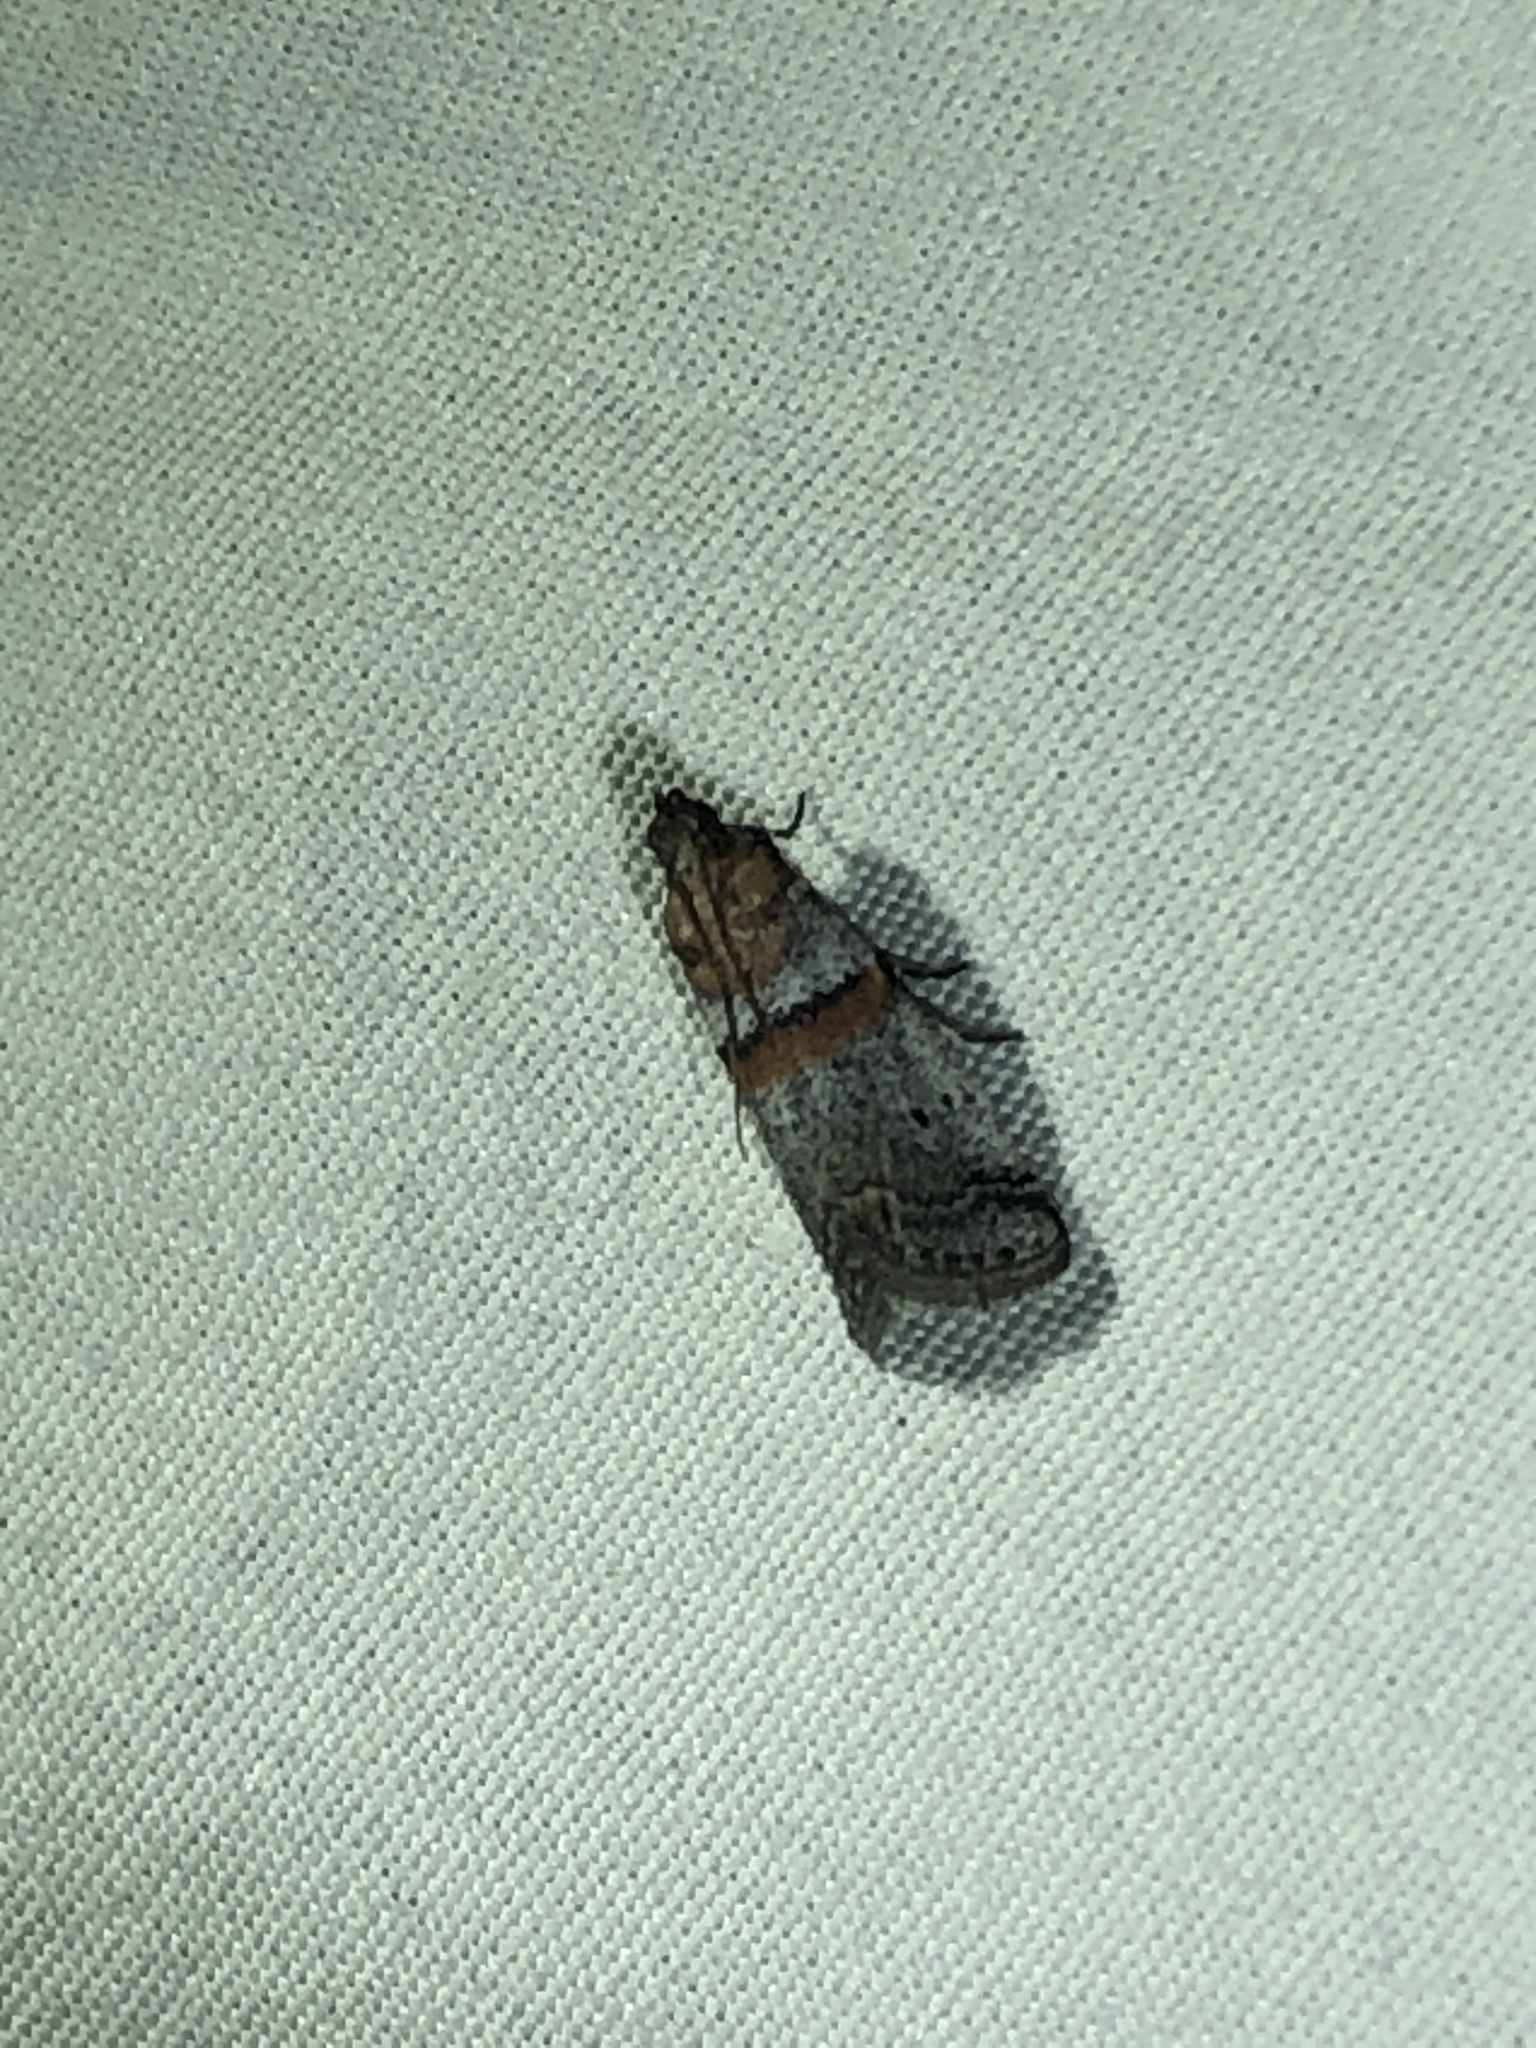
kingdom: Animalia
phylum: Arthropoda
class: Insecta
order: Lepidoptera
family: Pyralidae
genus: Acrobasis
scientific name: Acrobasis
